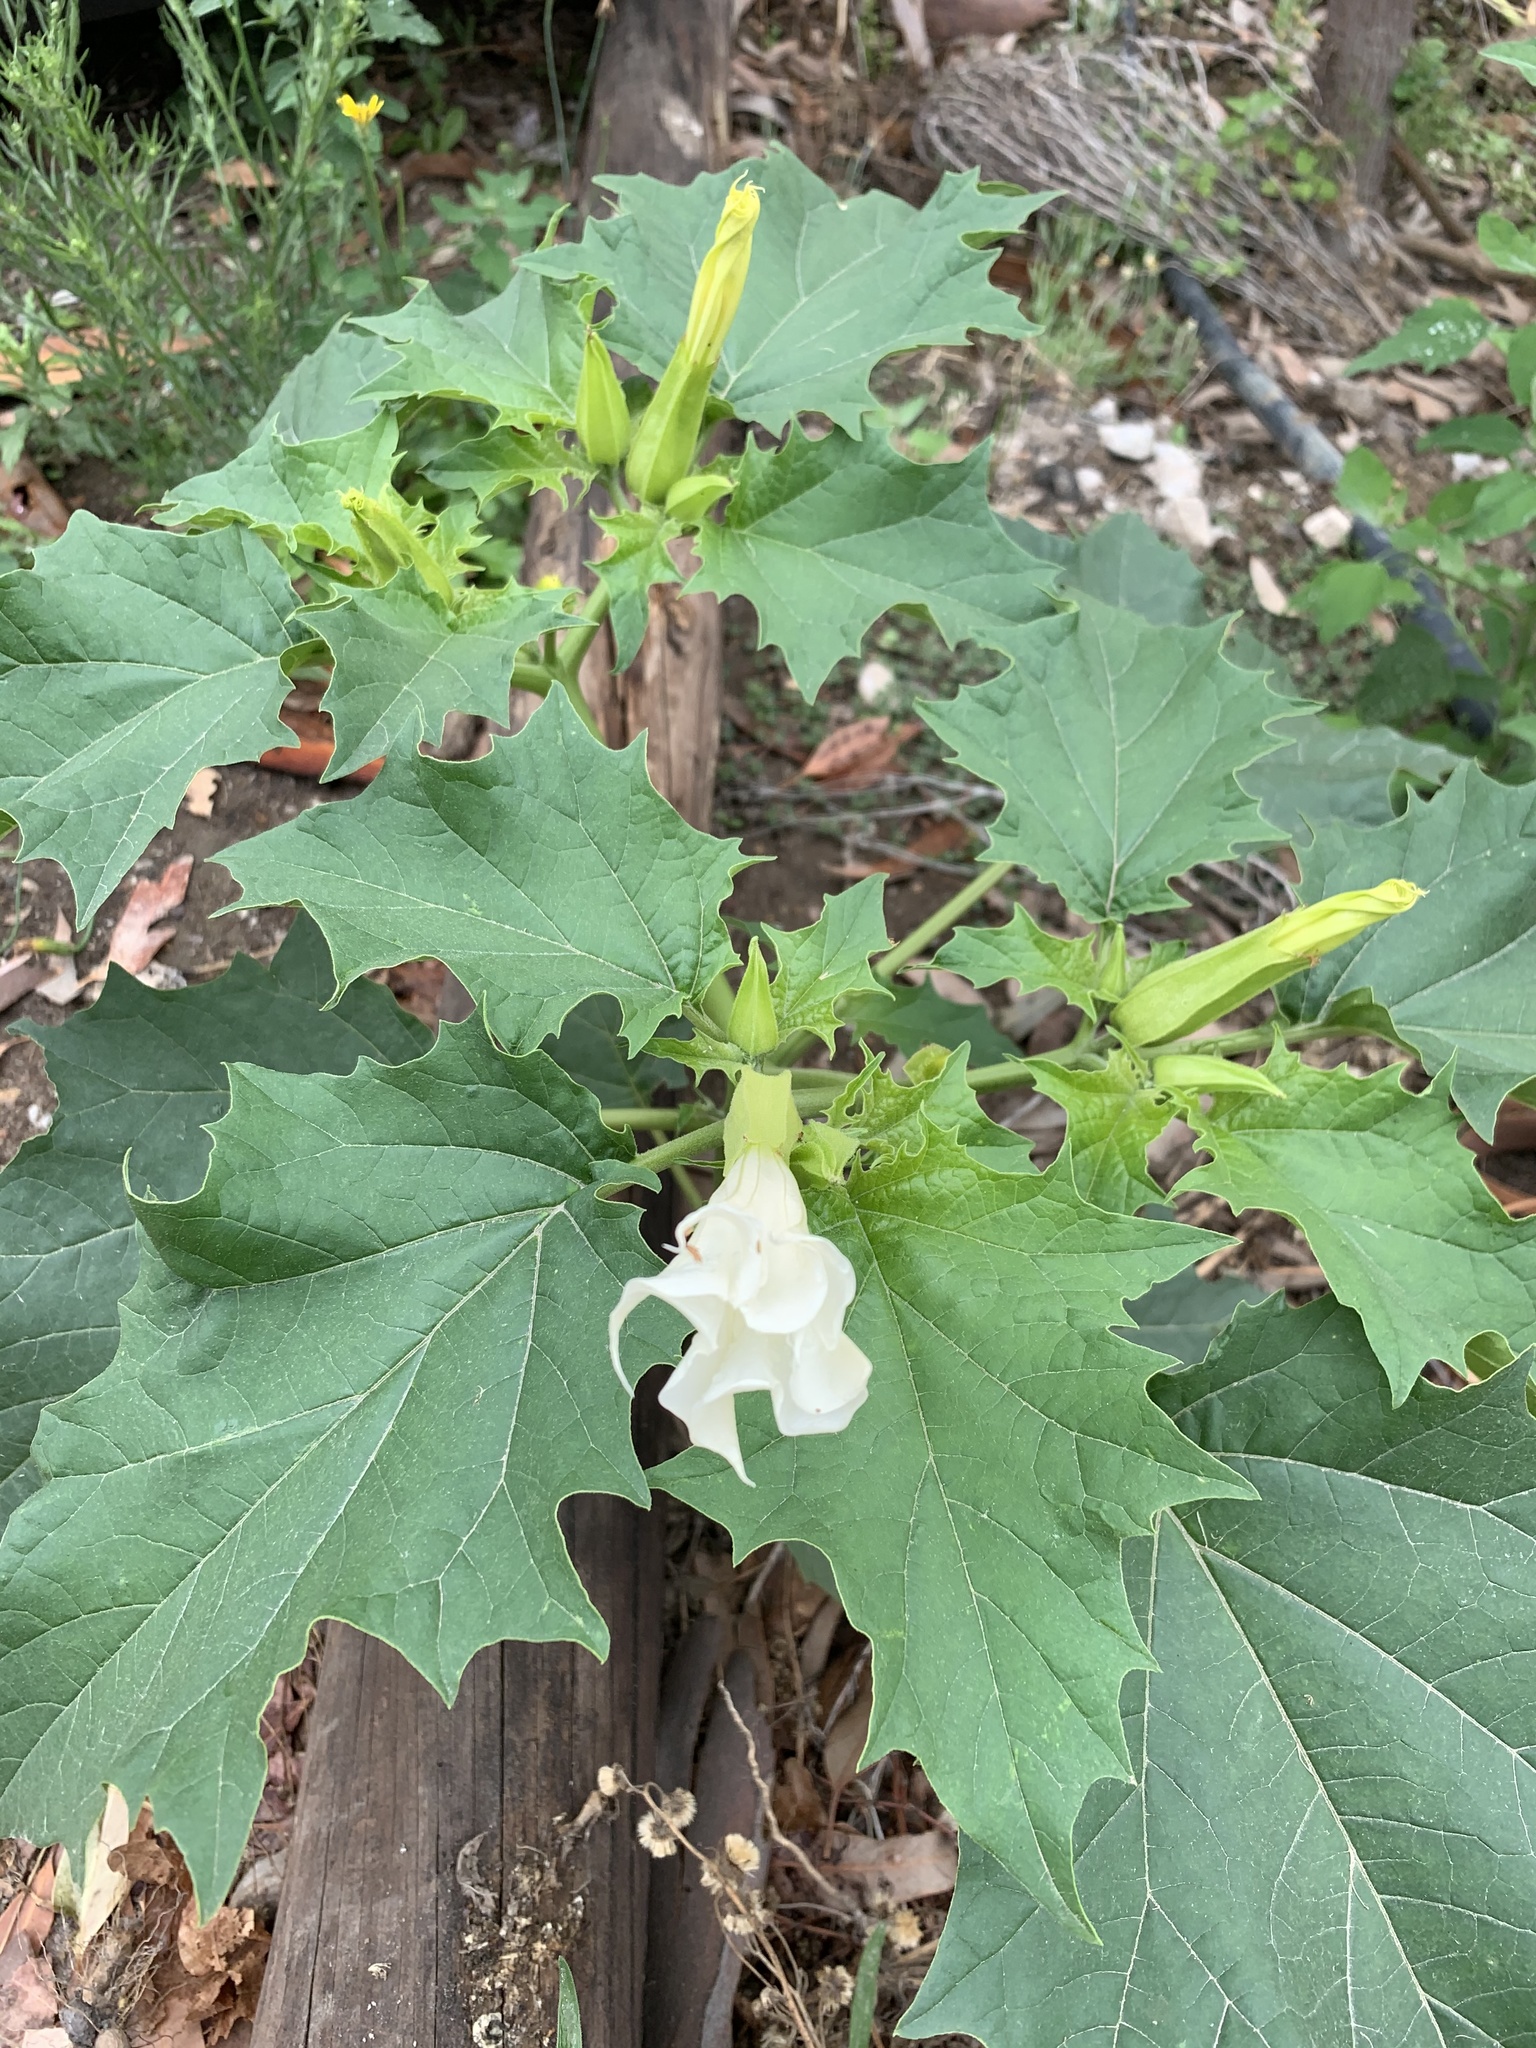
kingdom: Plantae
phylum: Tracheophyta
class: Magnoliopsida
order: Solanales
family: Solanaceae
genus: Datura
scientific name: Datura stramonium
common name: Thorn-apple
